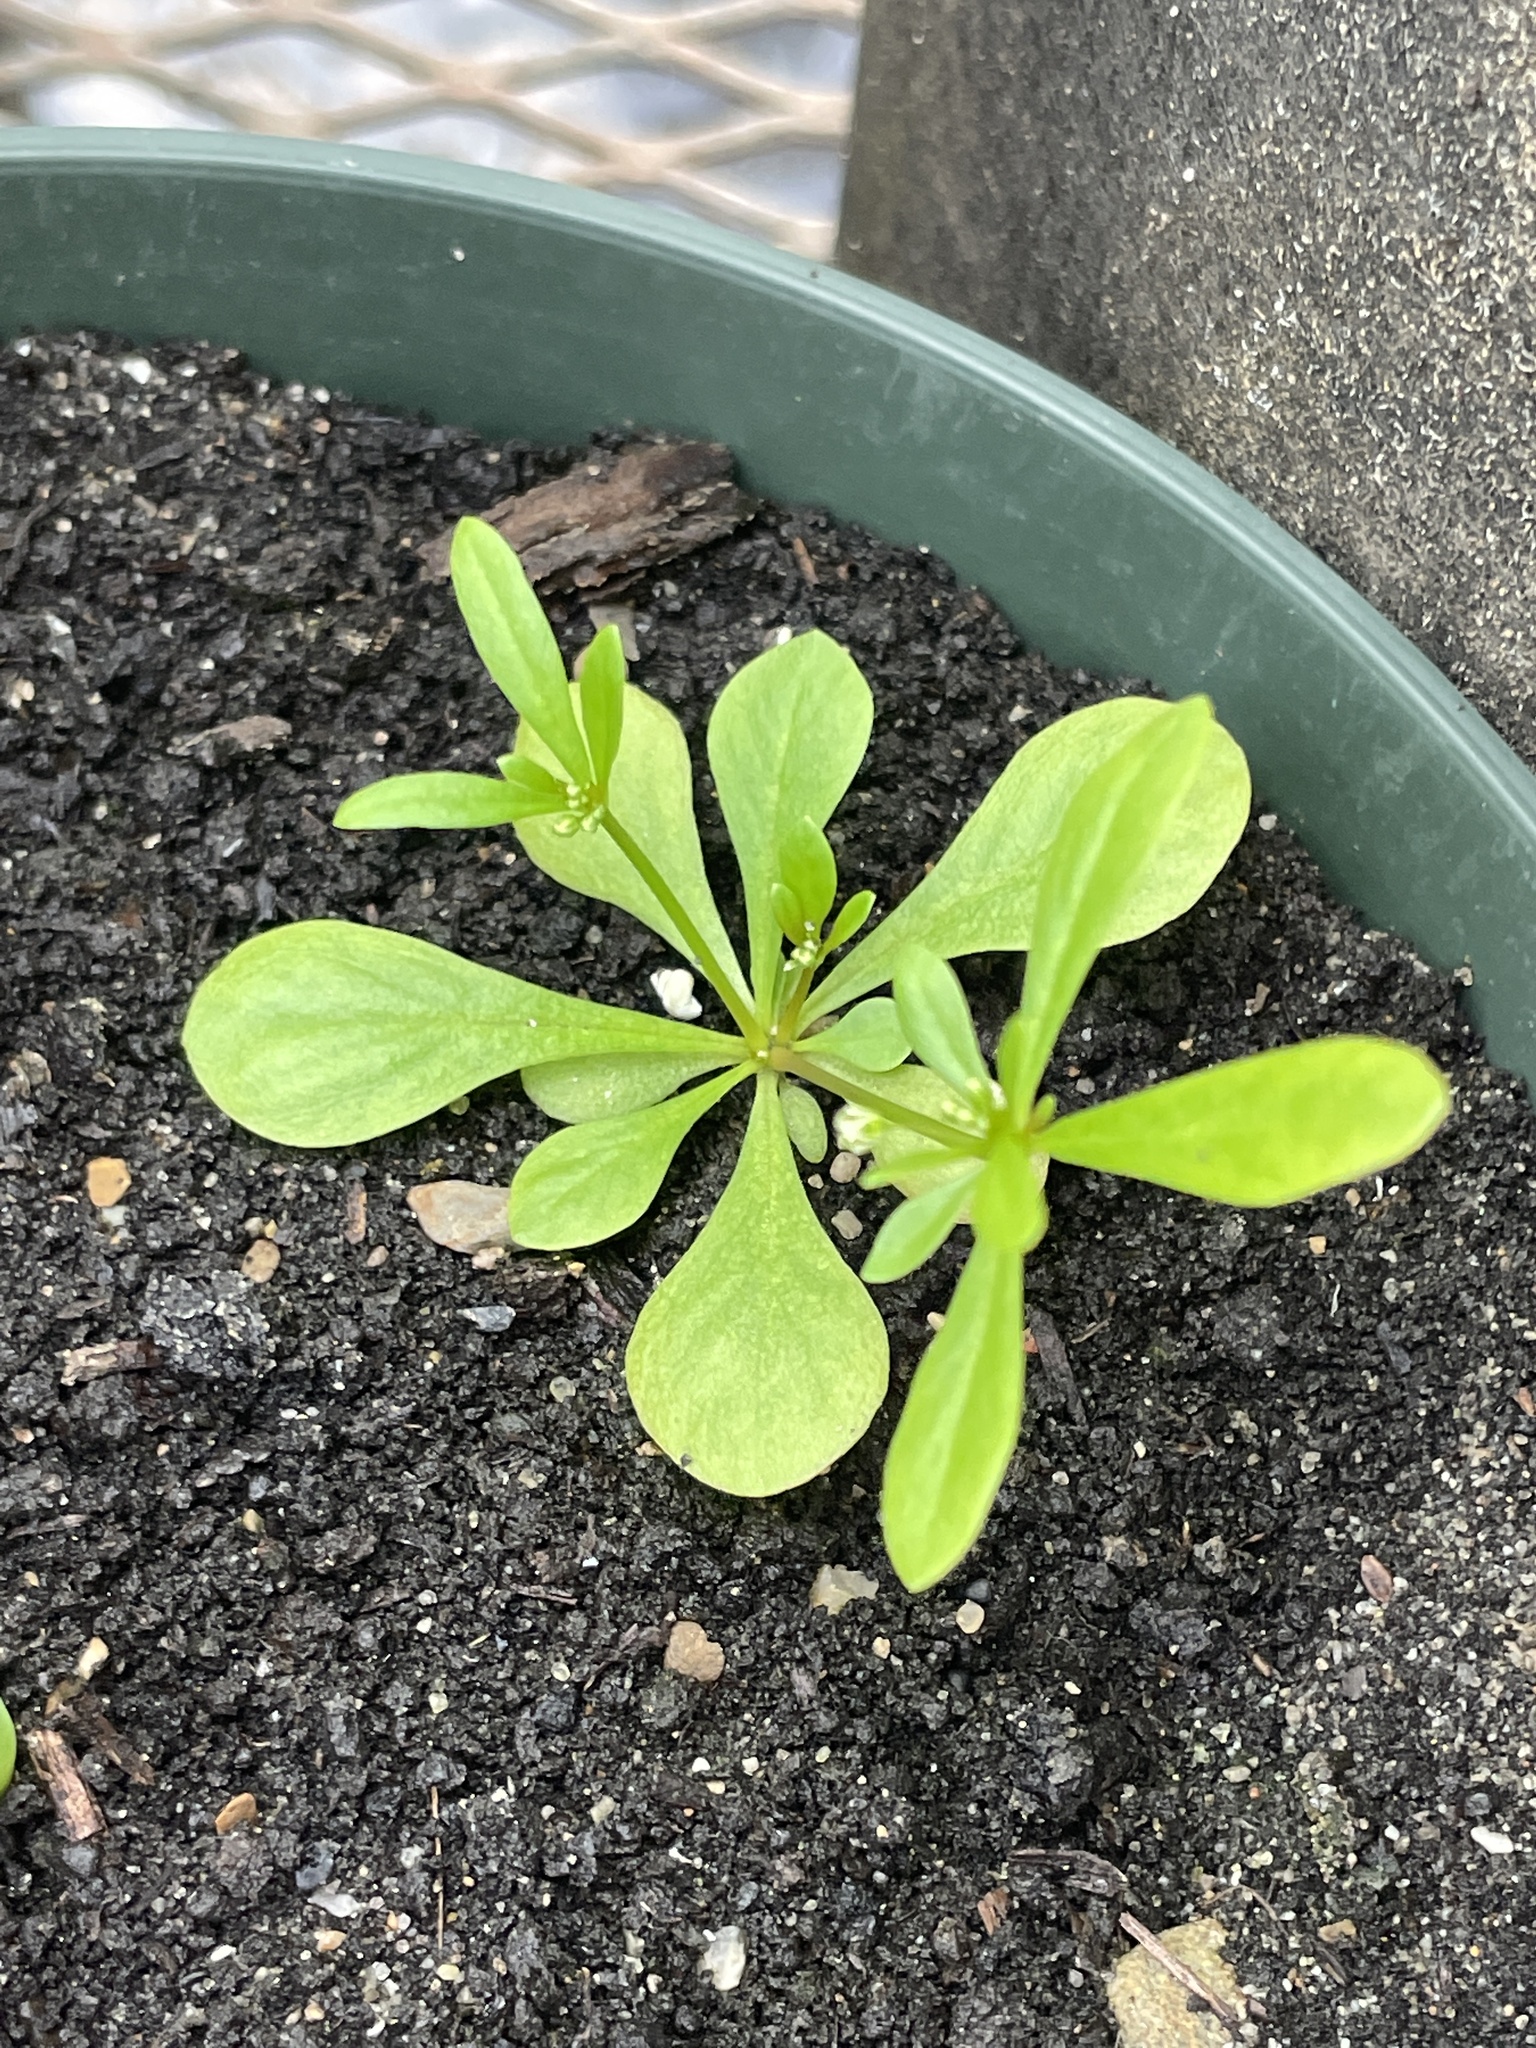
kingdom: Plantae
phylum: Tracheophyta
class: Magnoliopsida
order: Caryophyllales
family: Molluginaceae
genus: Mollugo
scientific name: Mollugo verticillata
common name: Green carpetweed
